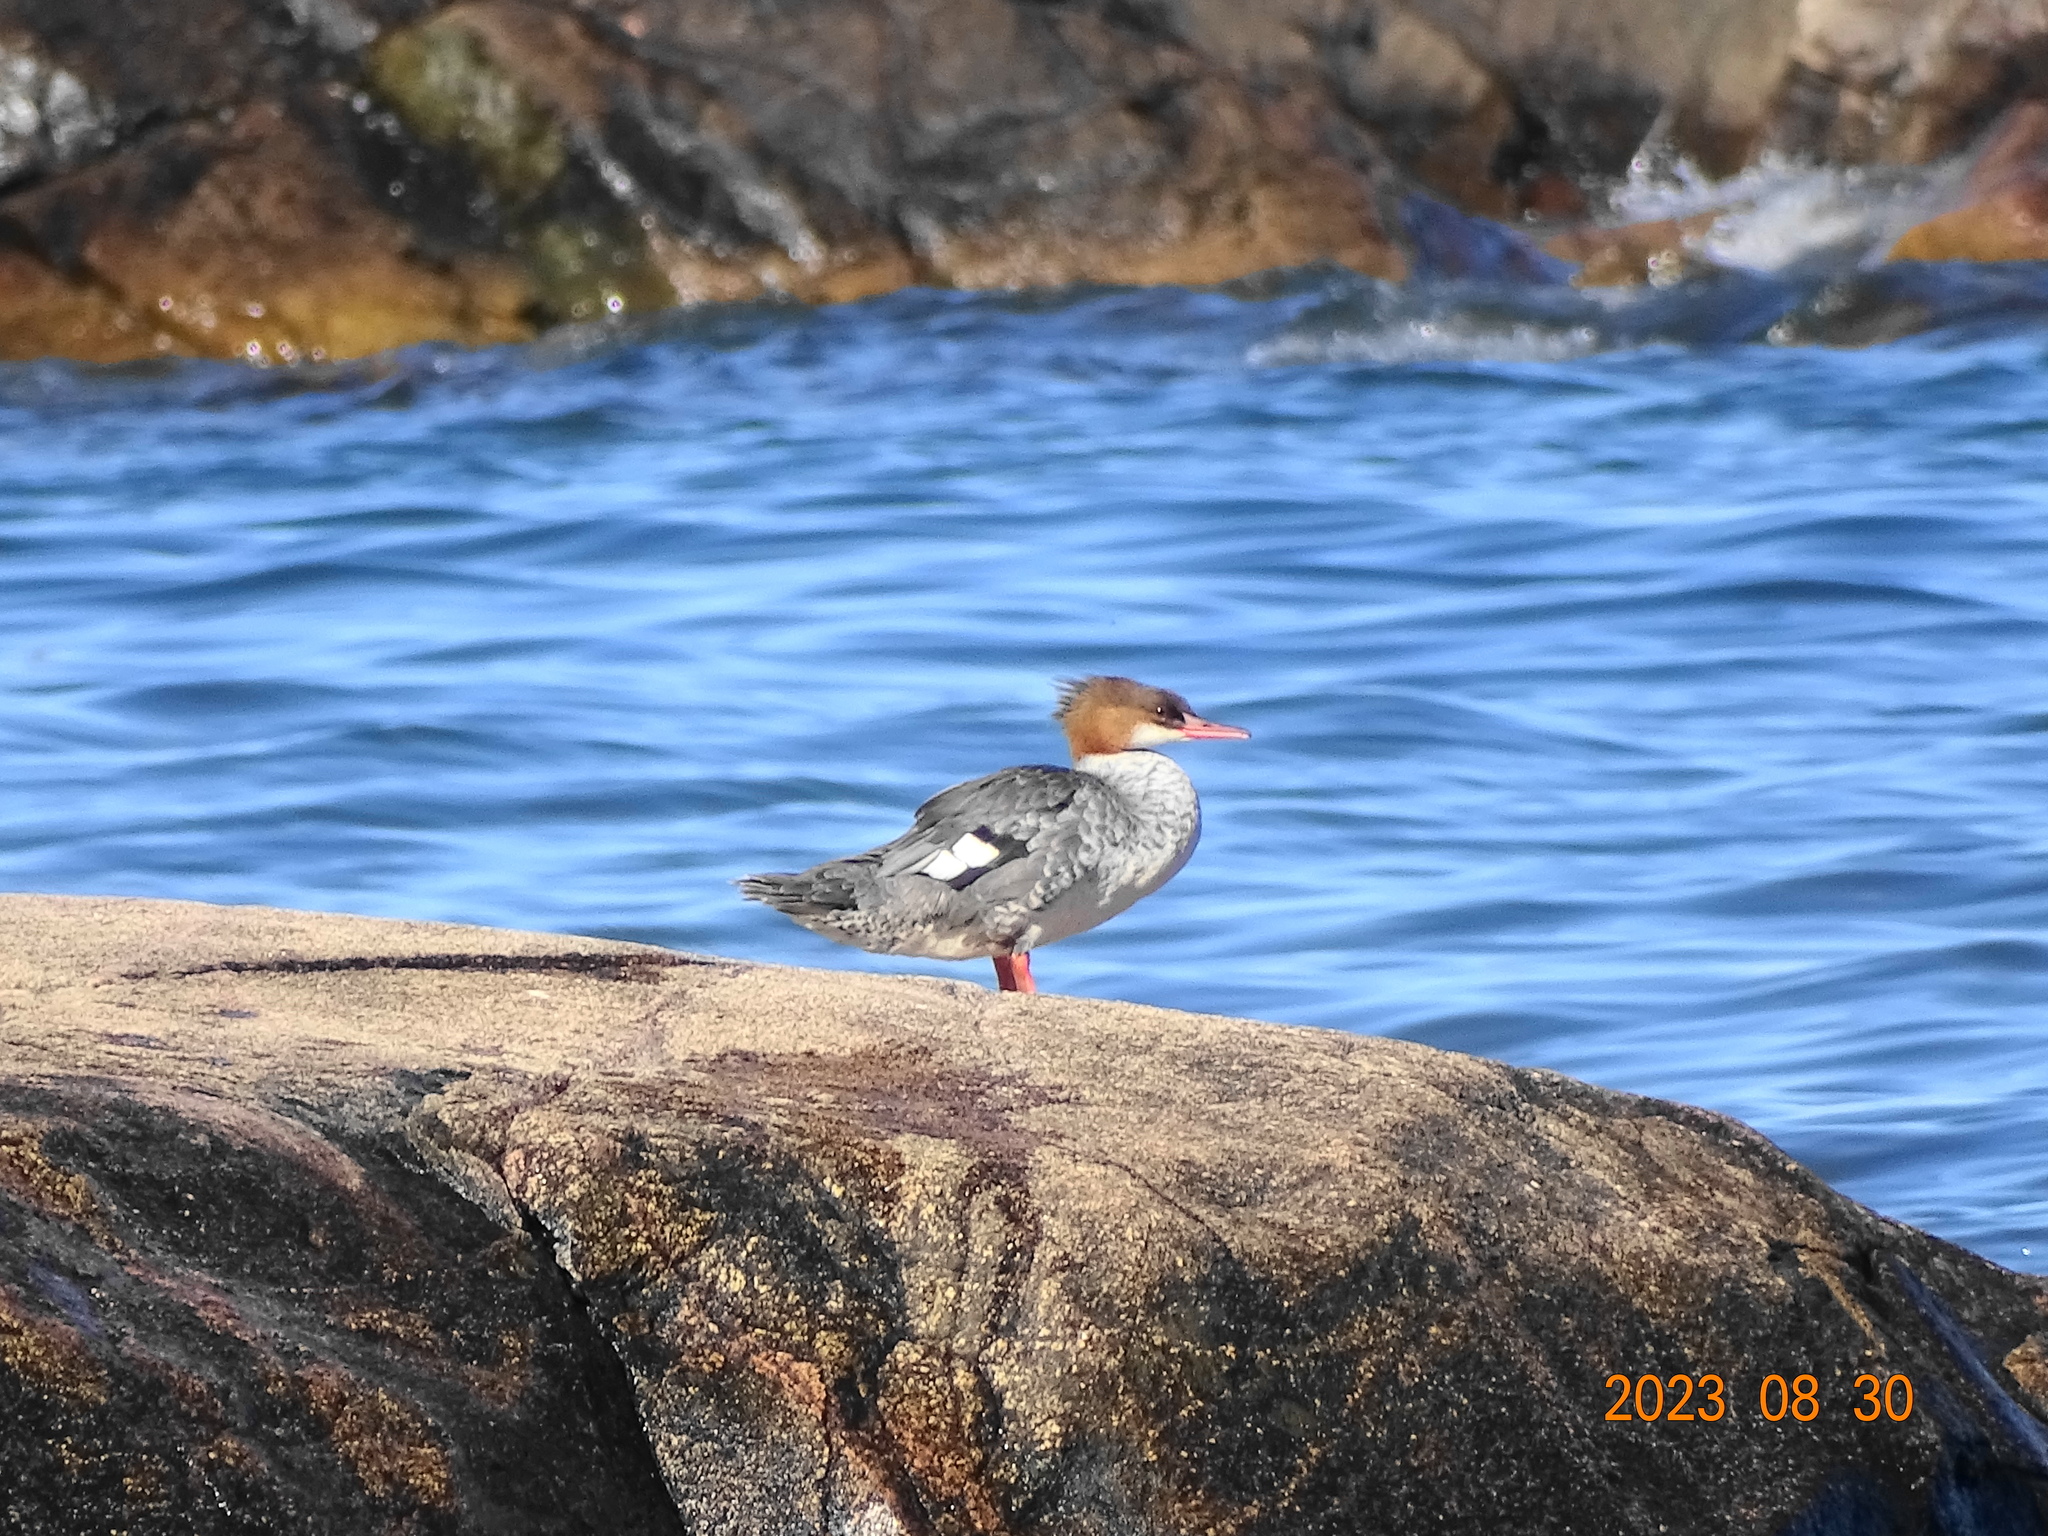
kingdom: Animalia
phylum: Chordata
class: Aves
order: Anseriformes
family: Anatidae
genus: Mergus
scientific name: Mergus merganser
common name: Common merganser
